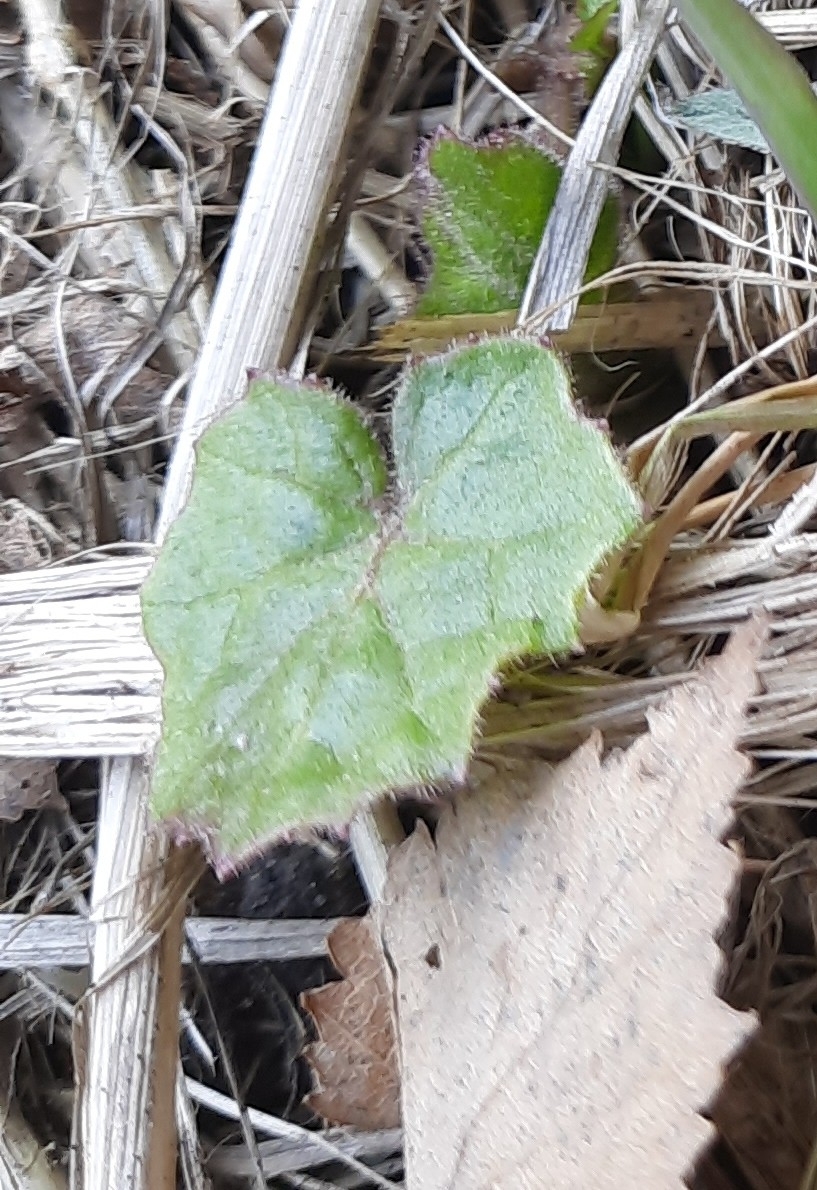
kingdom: Plantae
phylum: Tracheophyta
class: Magnoliopsida
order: Asterales
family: Asteraceae
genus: Tussilago
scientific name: Tussilago farfara
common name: Coltsfoot
